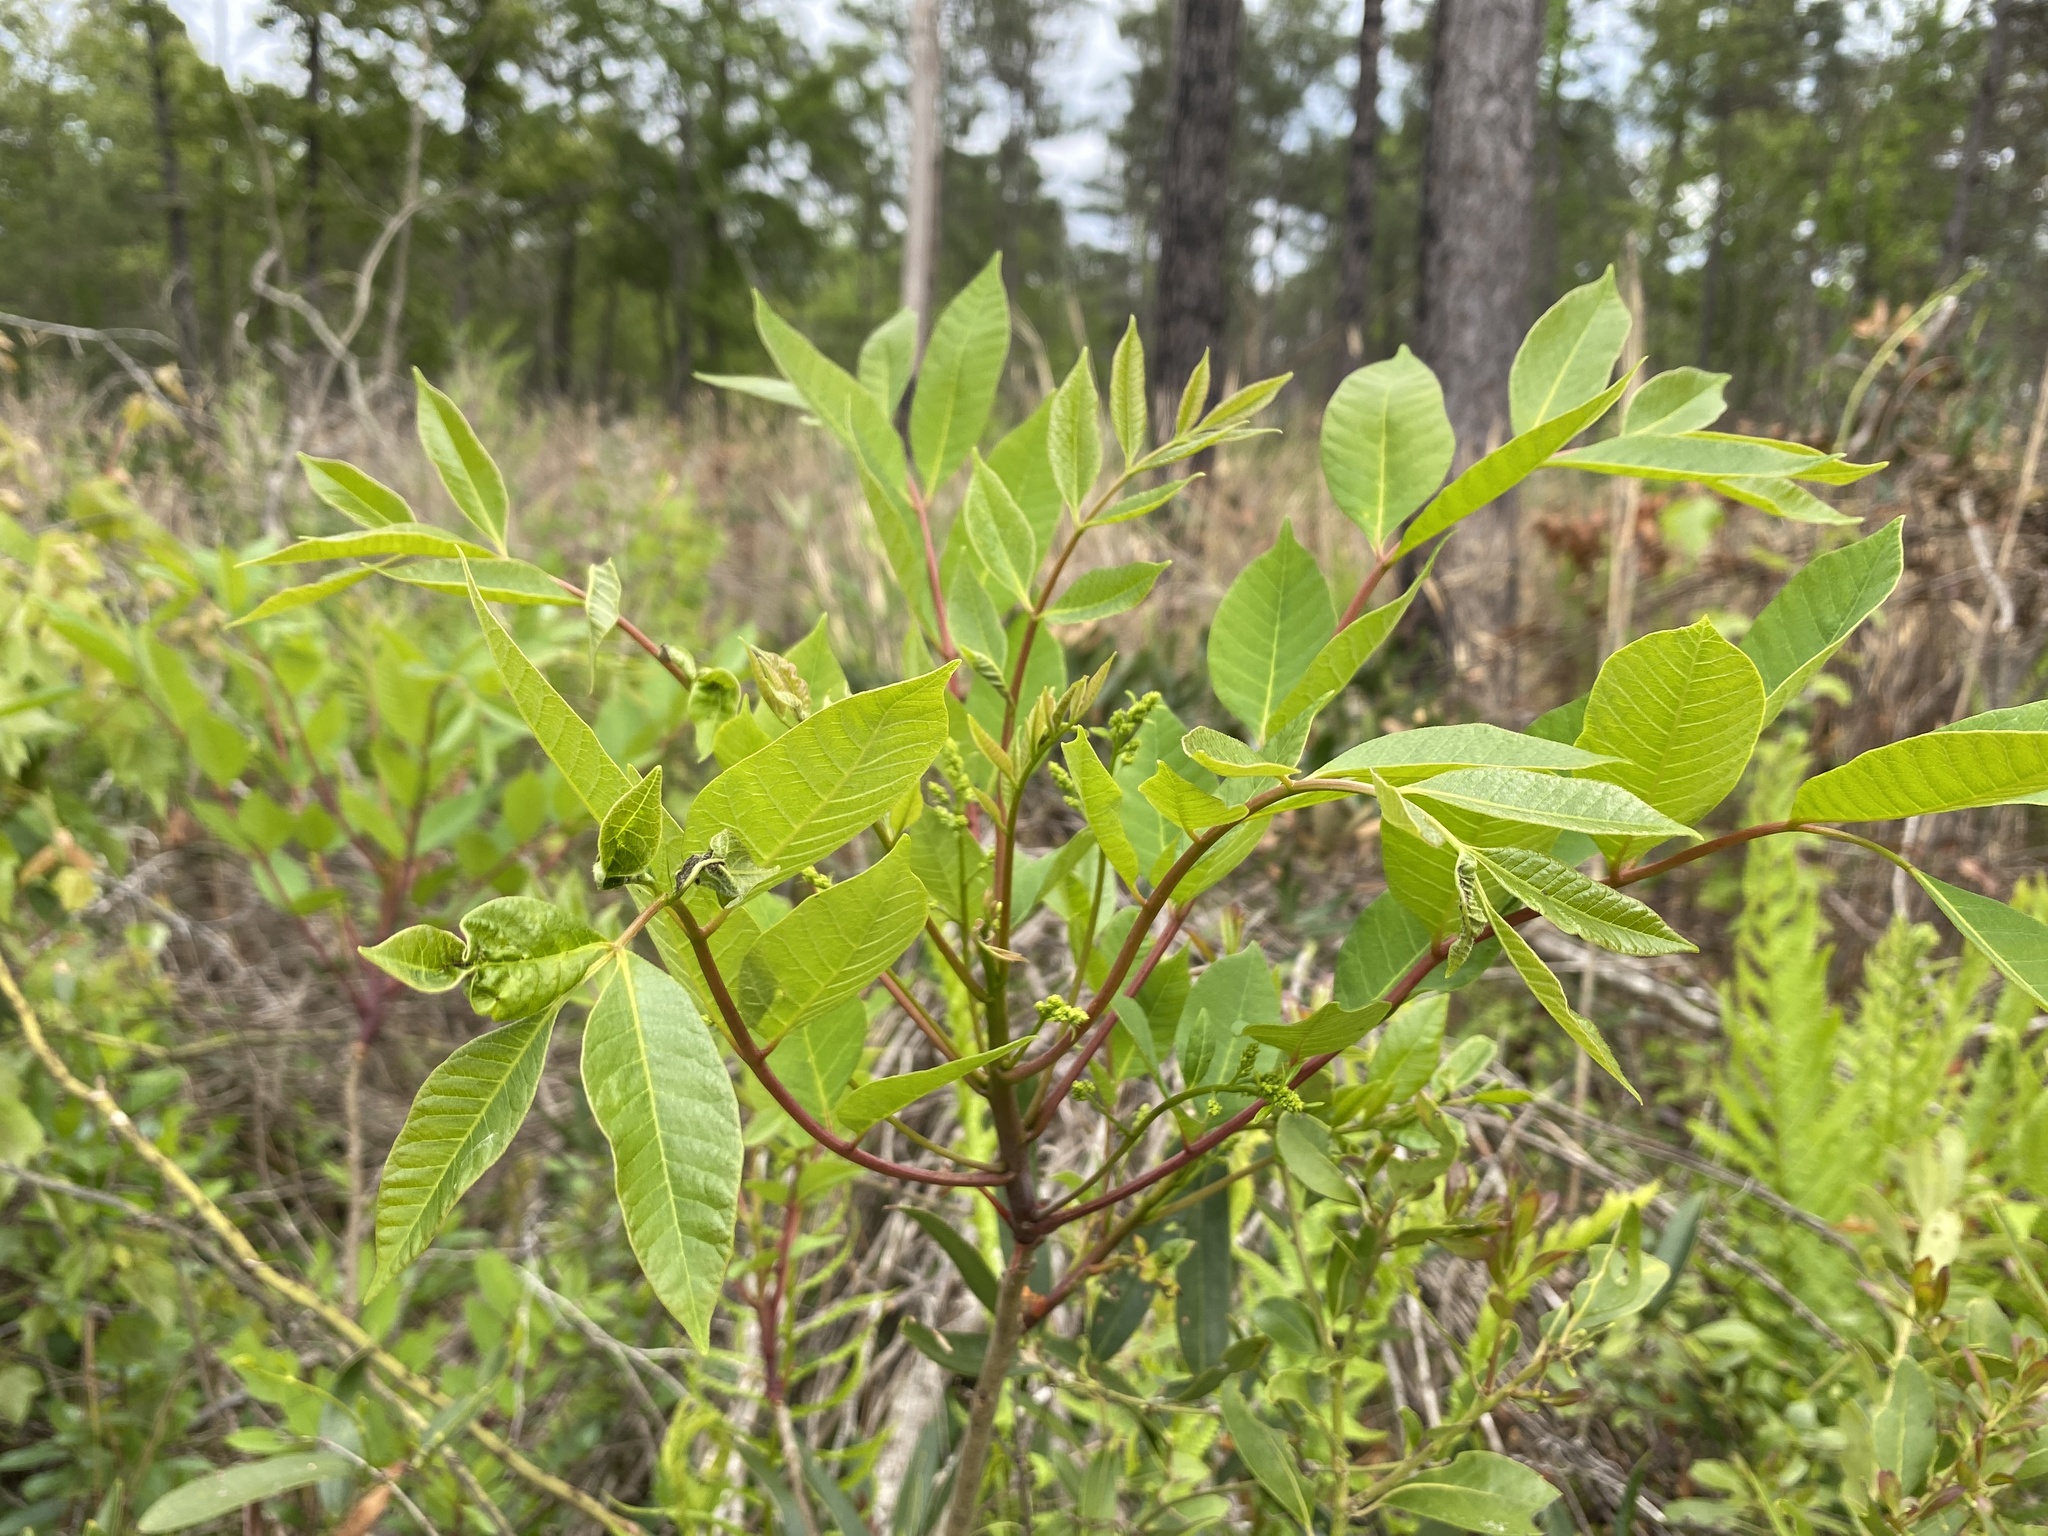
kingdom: Plantae
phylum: Tracheophyta
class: Magnoliopsida
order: Sapindales
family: Anacardiaceae
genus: Toxicodendron
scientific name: Toxicodendron vernix
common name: Poison sumac
